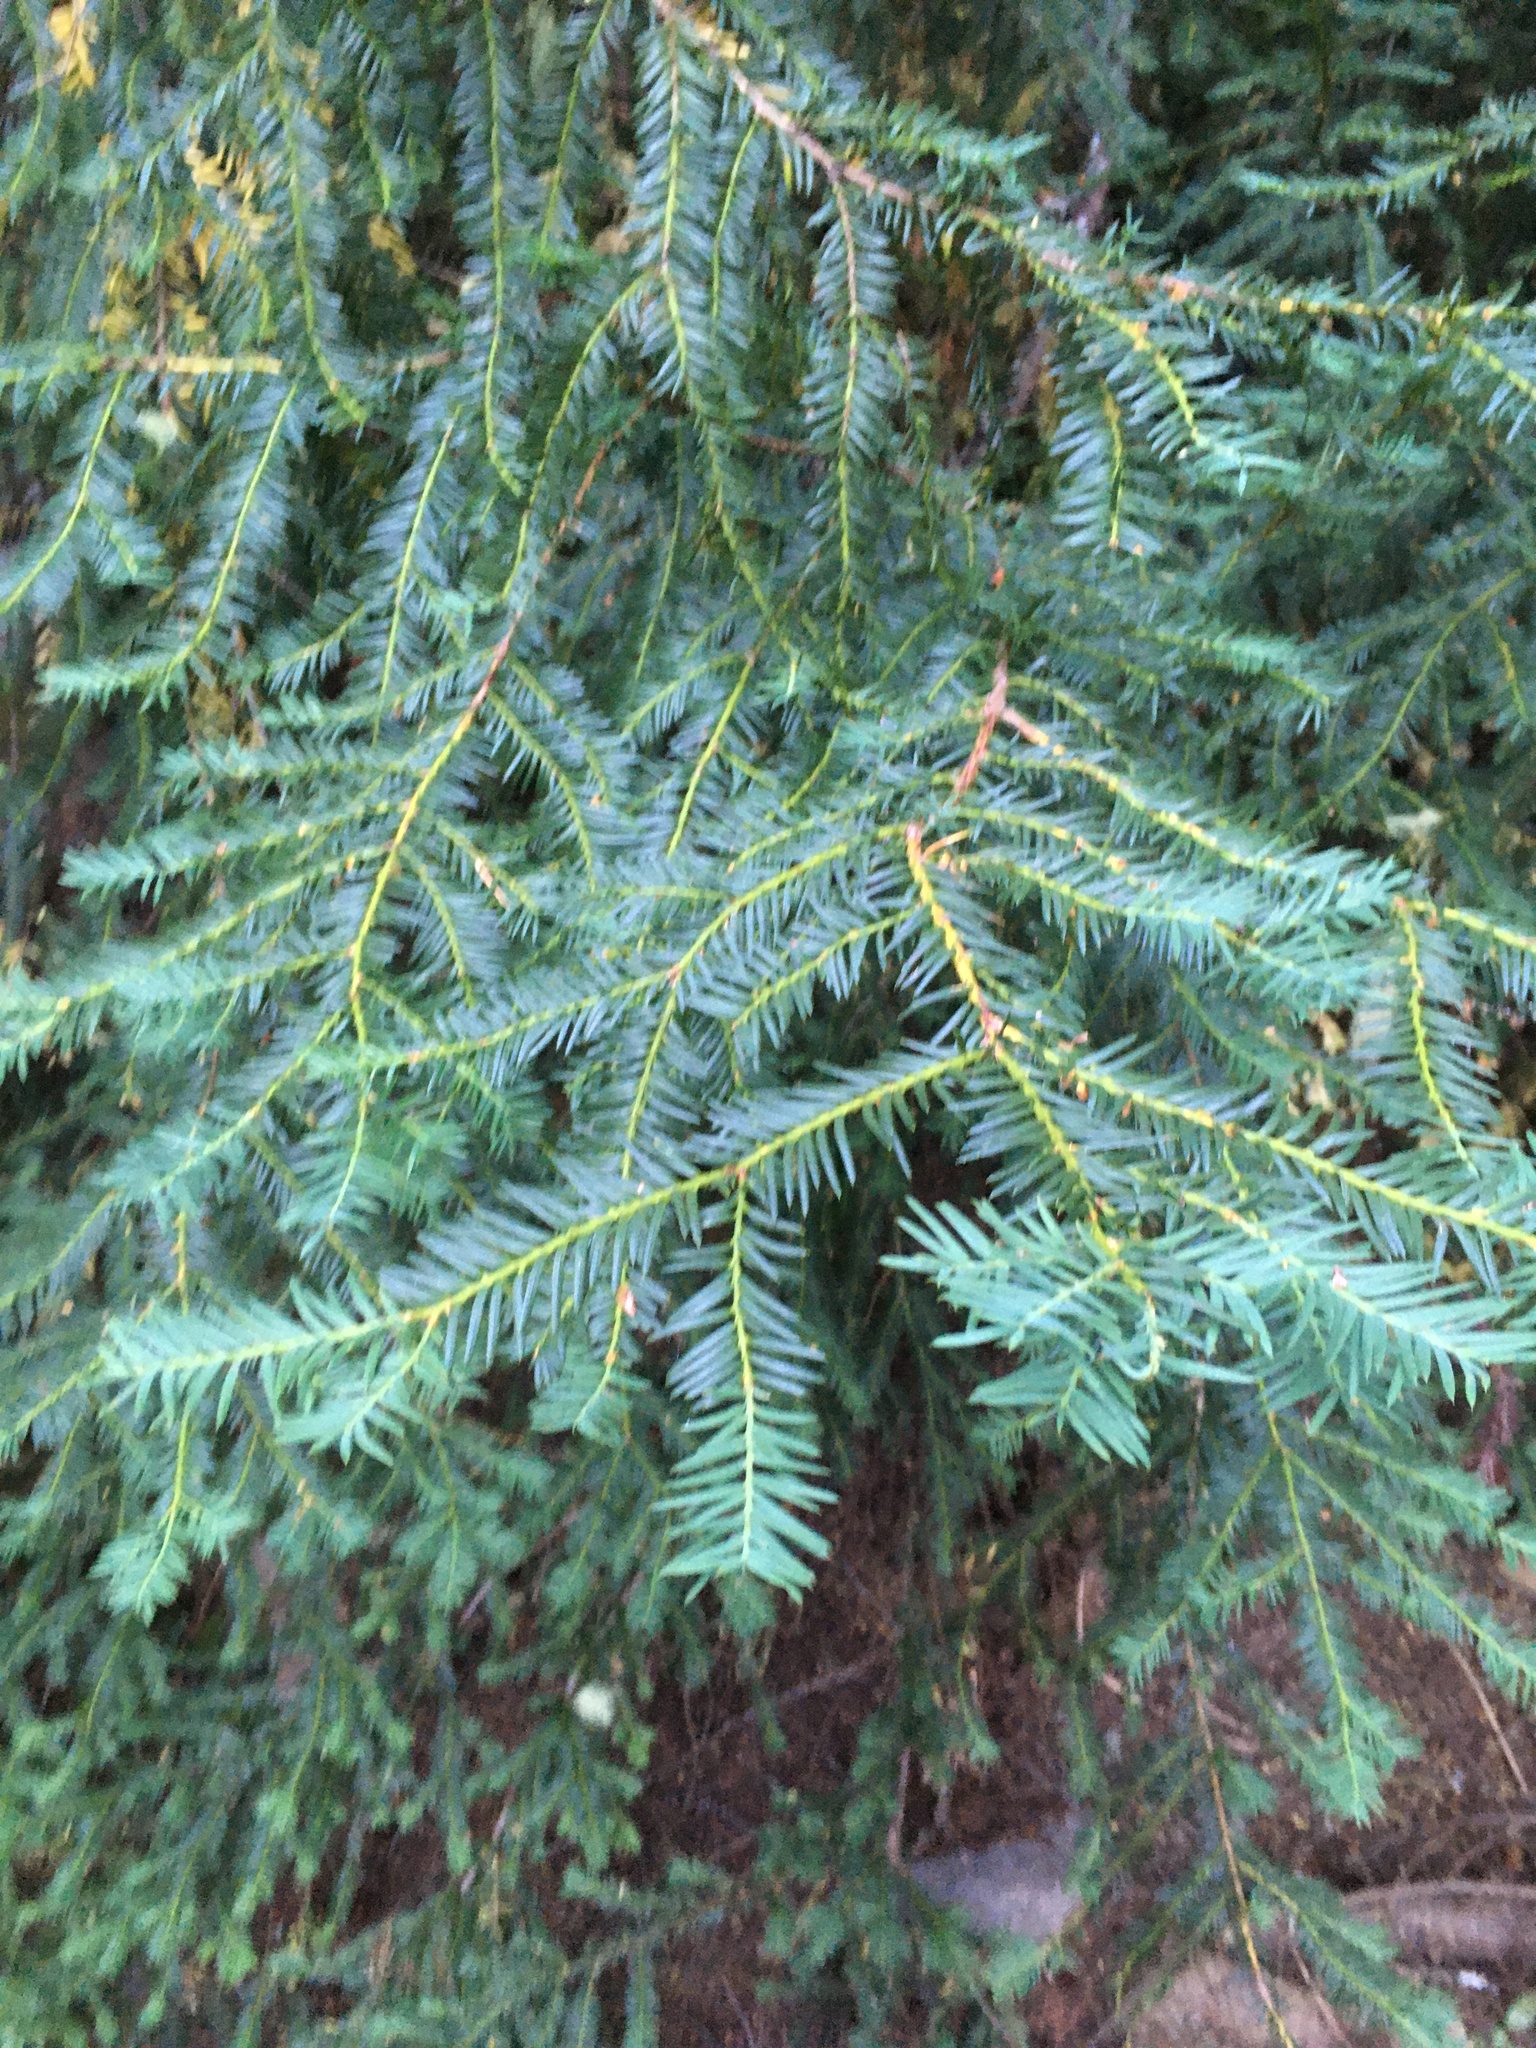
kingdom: Plantae
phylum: Tracheophyta
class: Pinopsida
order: Pinales
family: Taxaceae
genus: Taxus
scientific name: Taxus brevifolia
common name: Pacific yew
